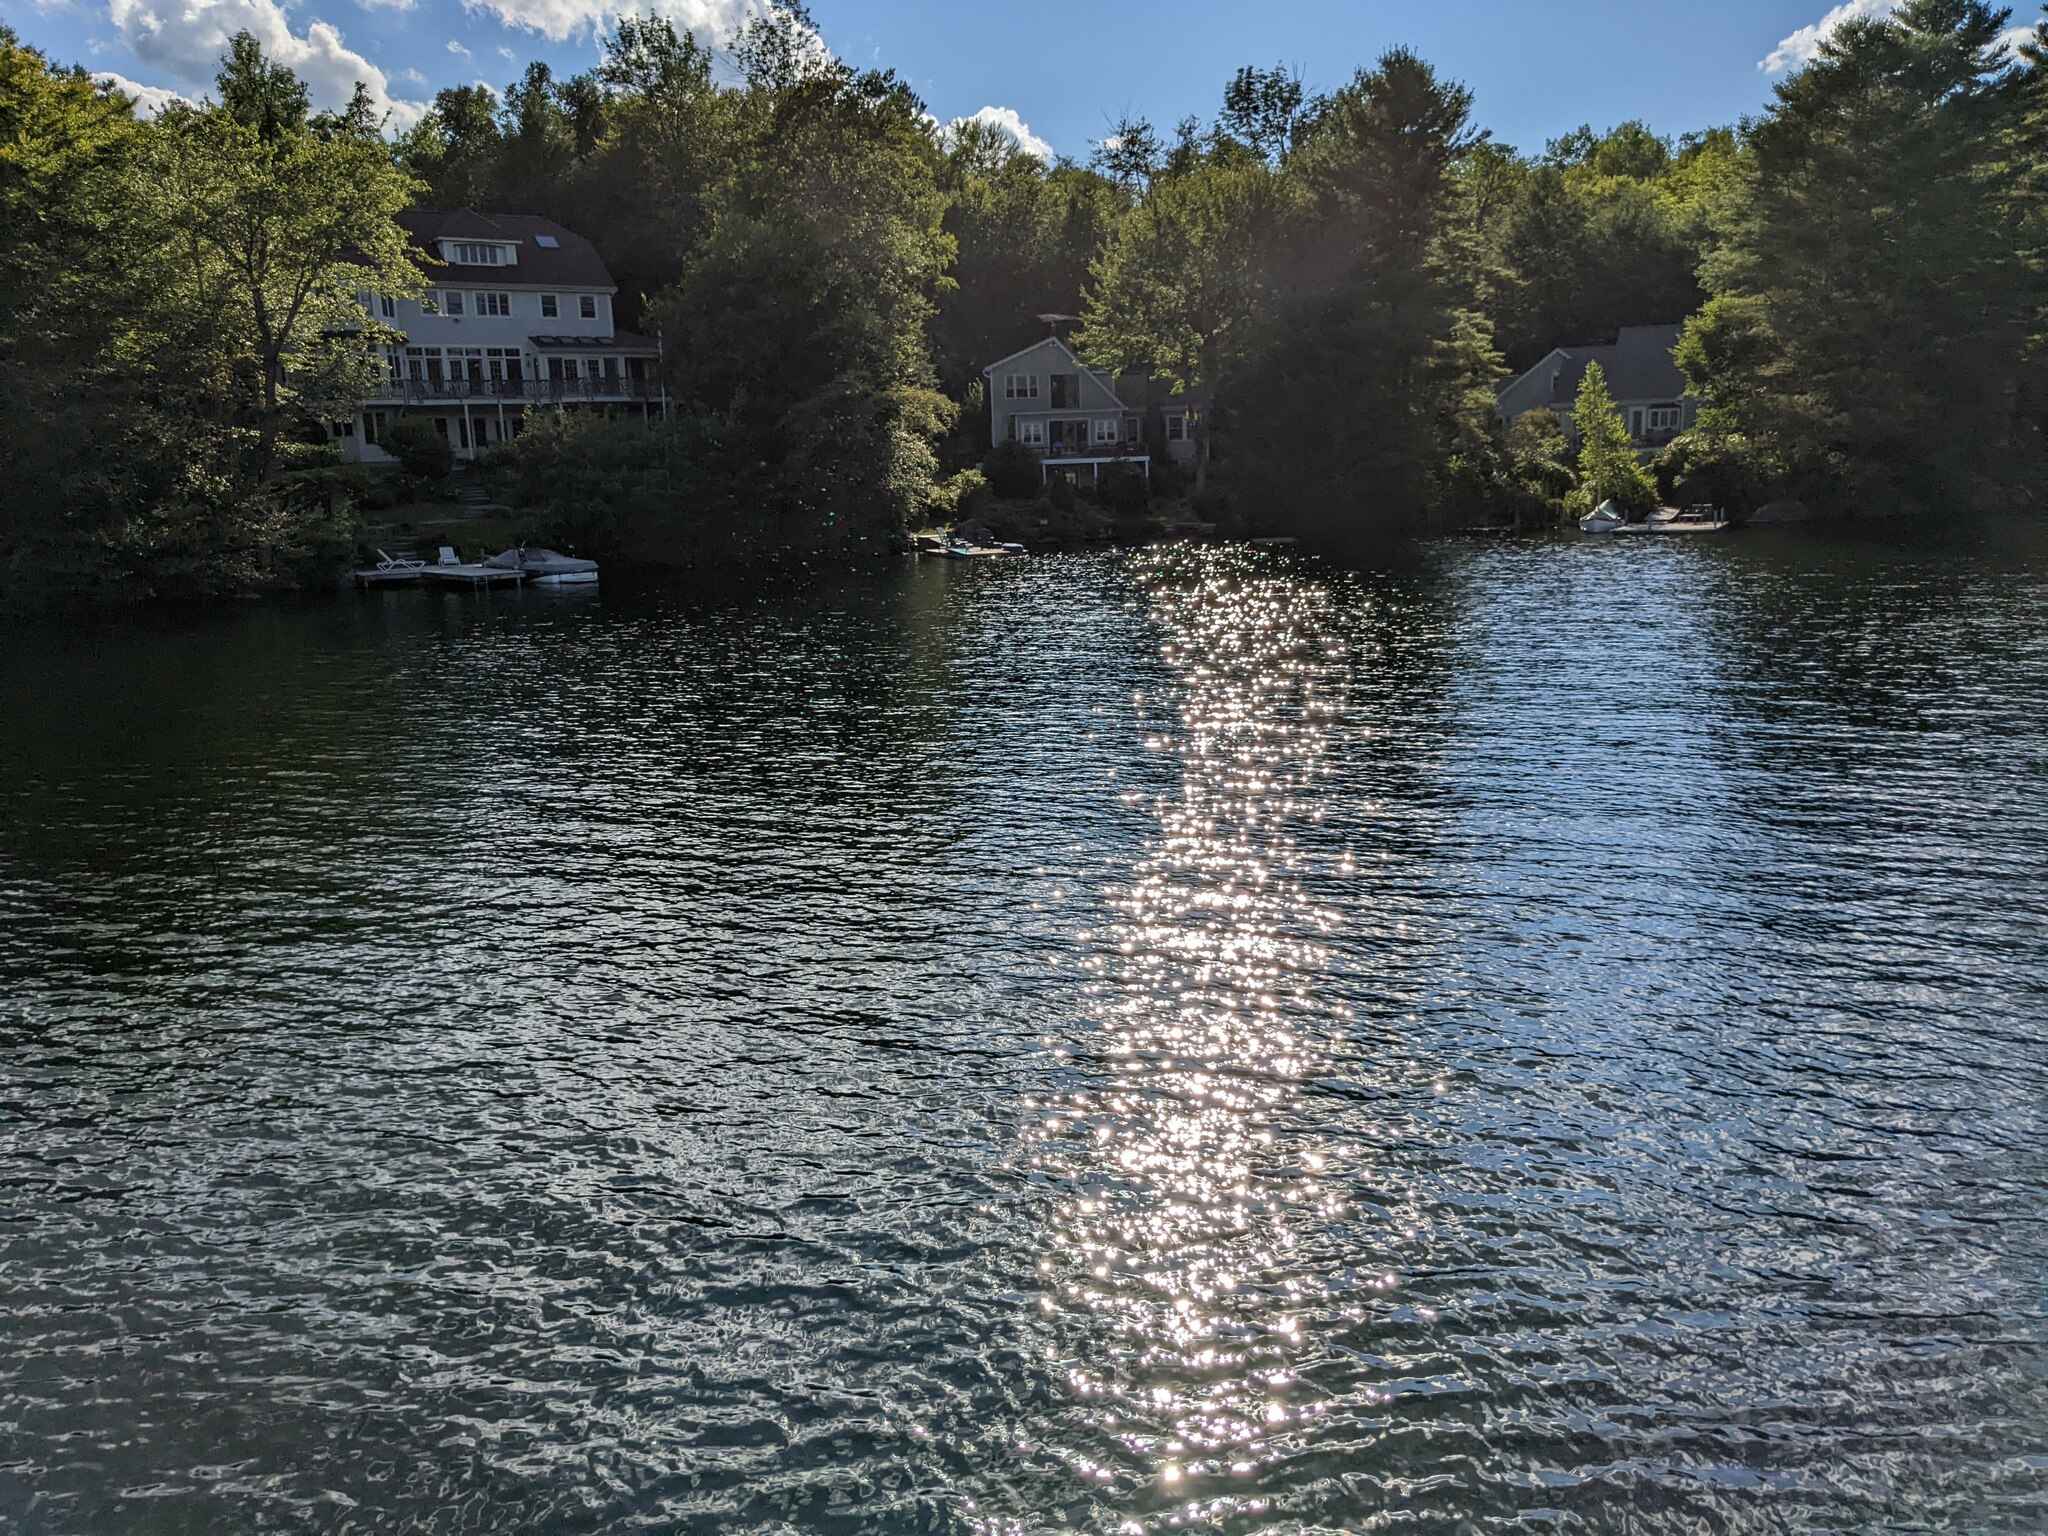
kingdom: Plantae
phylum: Tracheophyta
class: Pinopsida
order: Pinales
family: Pinaceae
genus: Pinus
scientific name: Pinus strobus
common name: Weymouth pine
